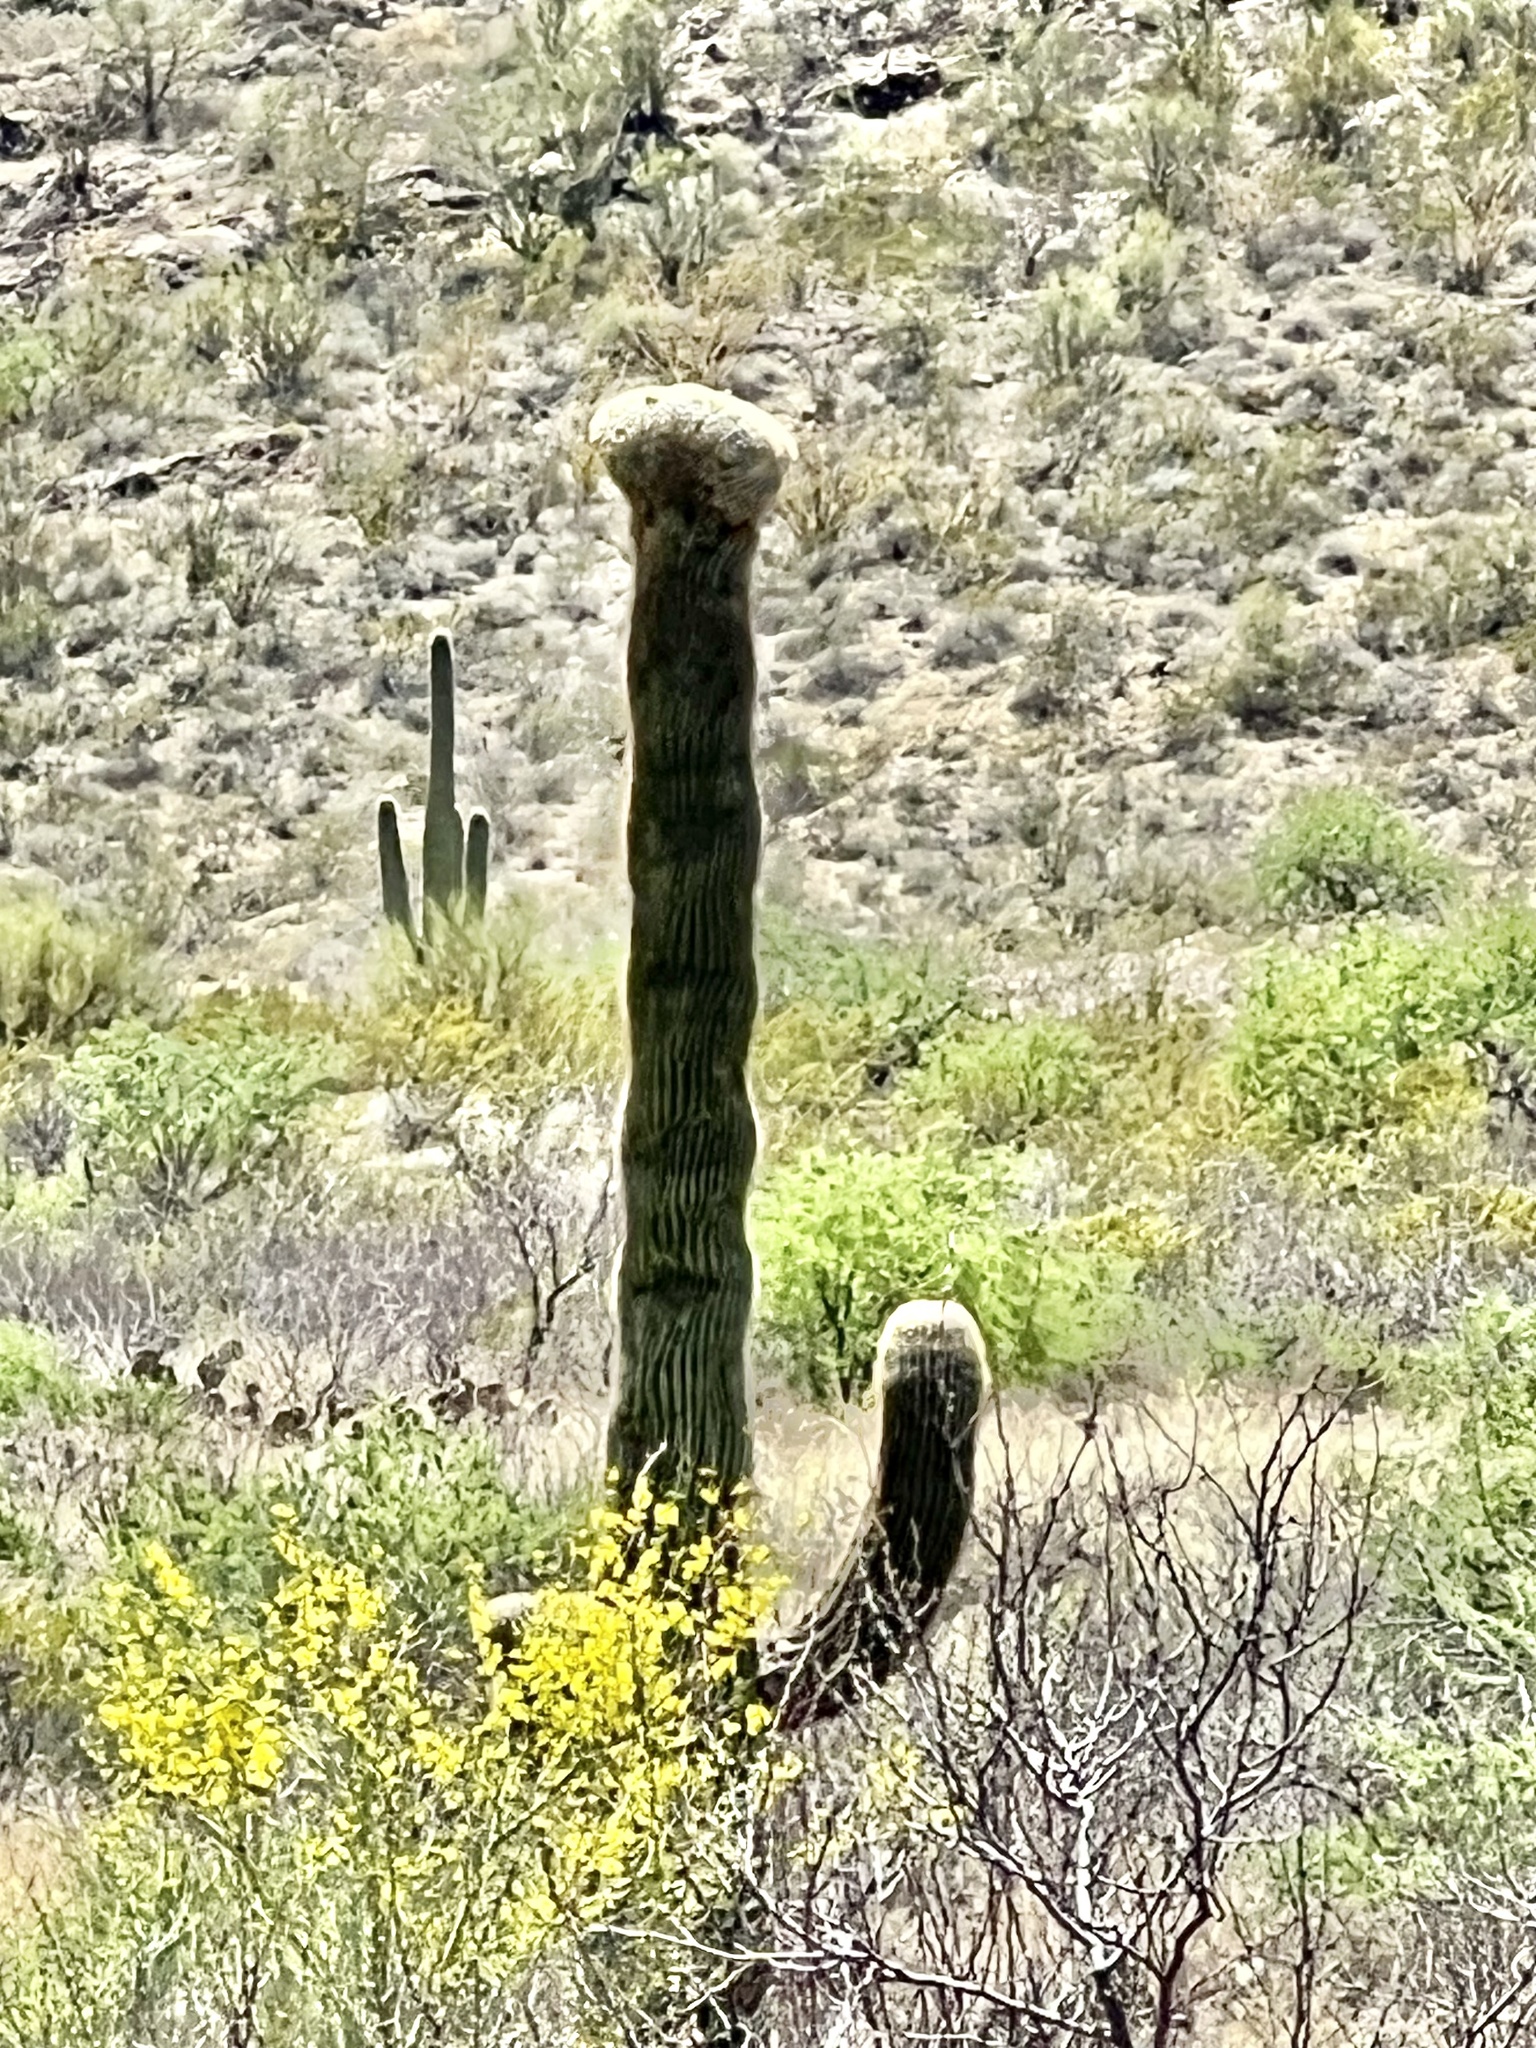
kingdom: Plantae
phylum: Tracheophyta
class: Magnoliopsida
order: Caryophyllales
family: Cactaceae
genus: Carnegiea
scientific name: Carnegiea gigantea
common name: Saguaro
